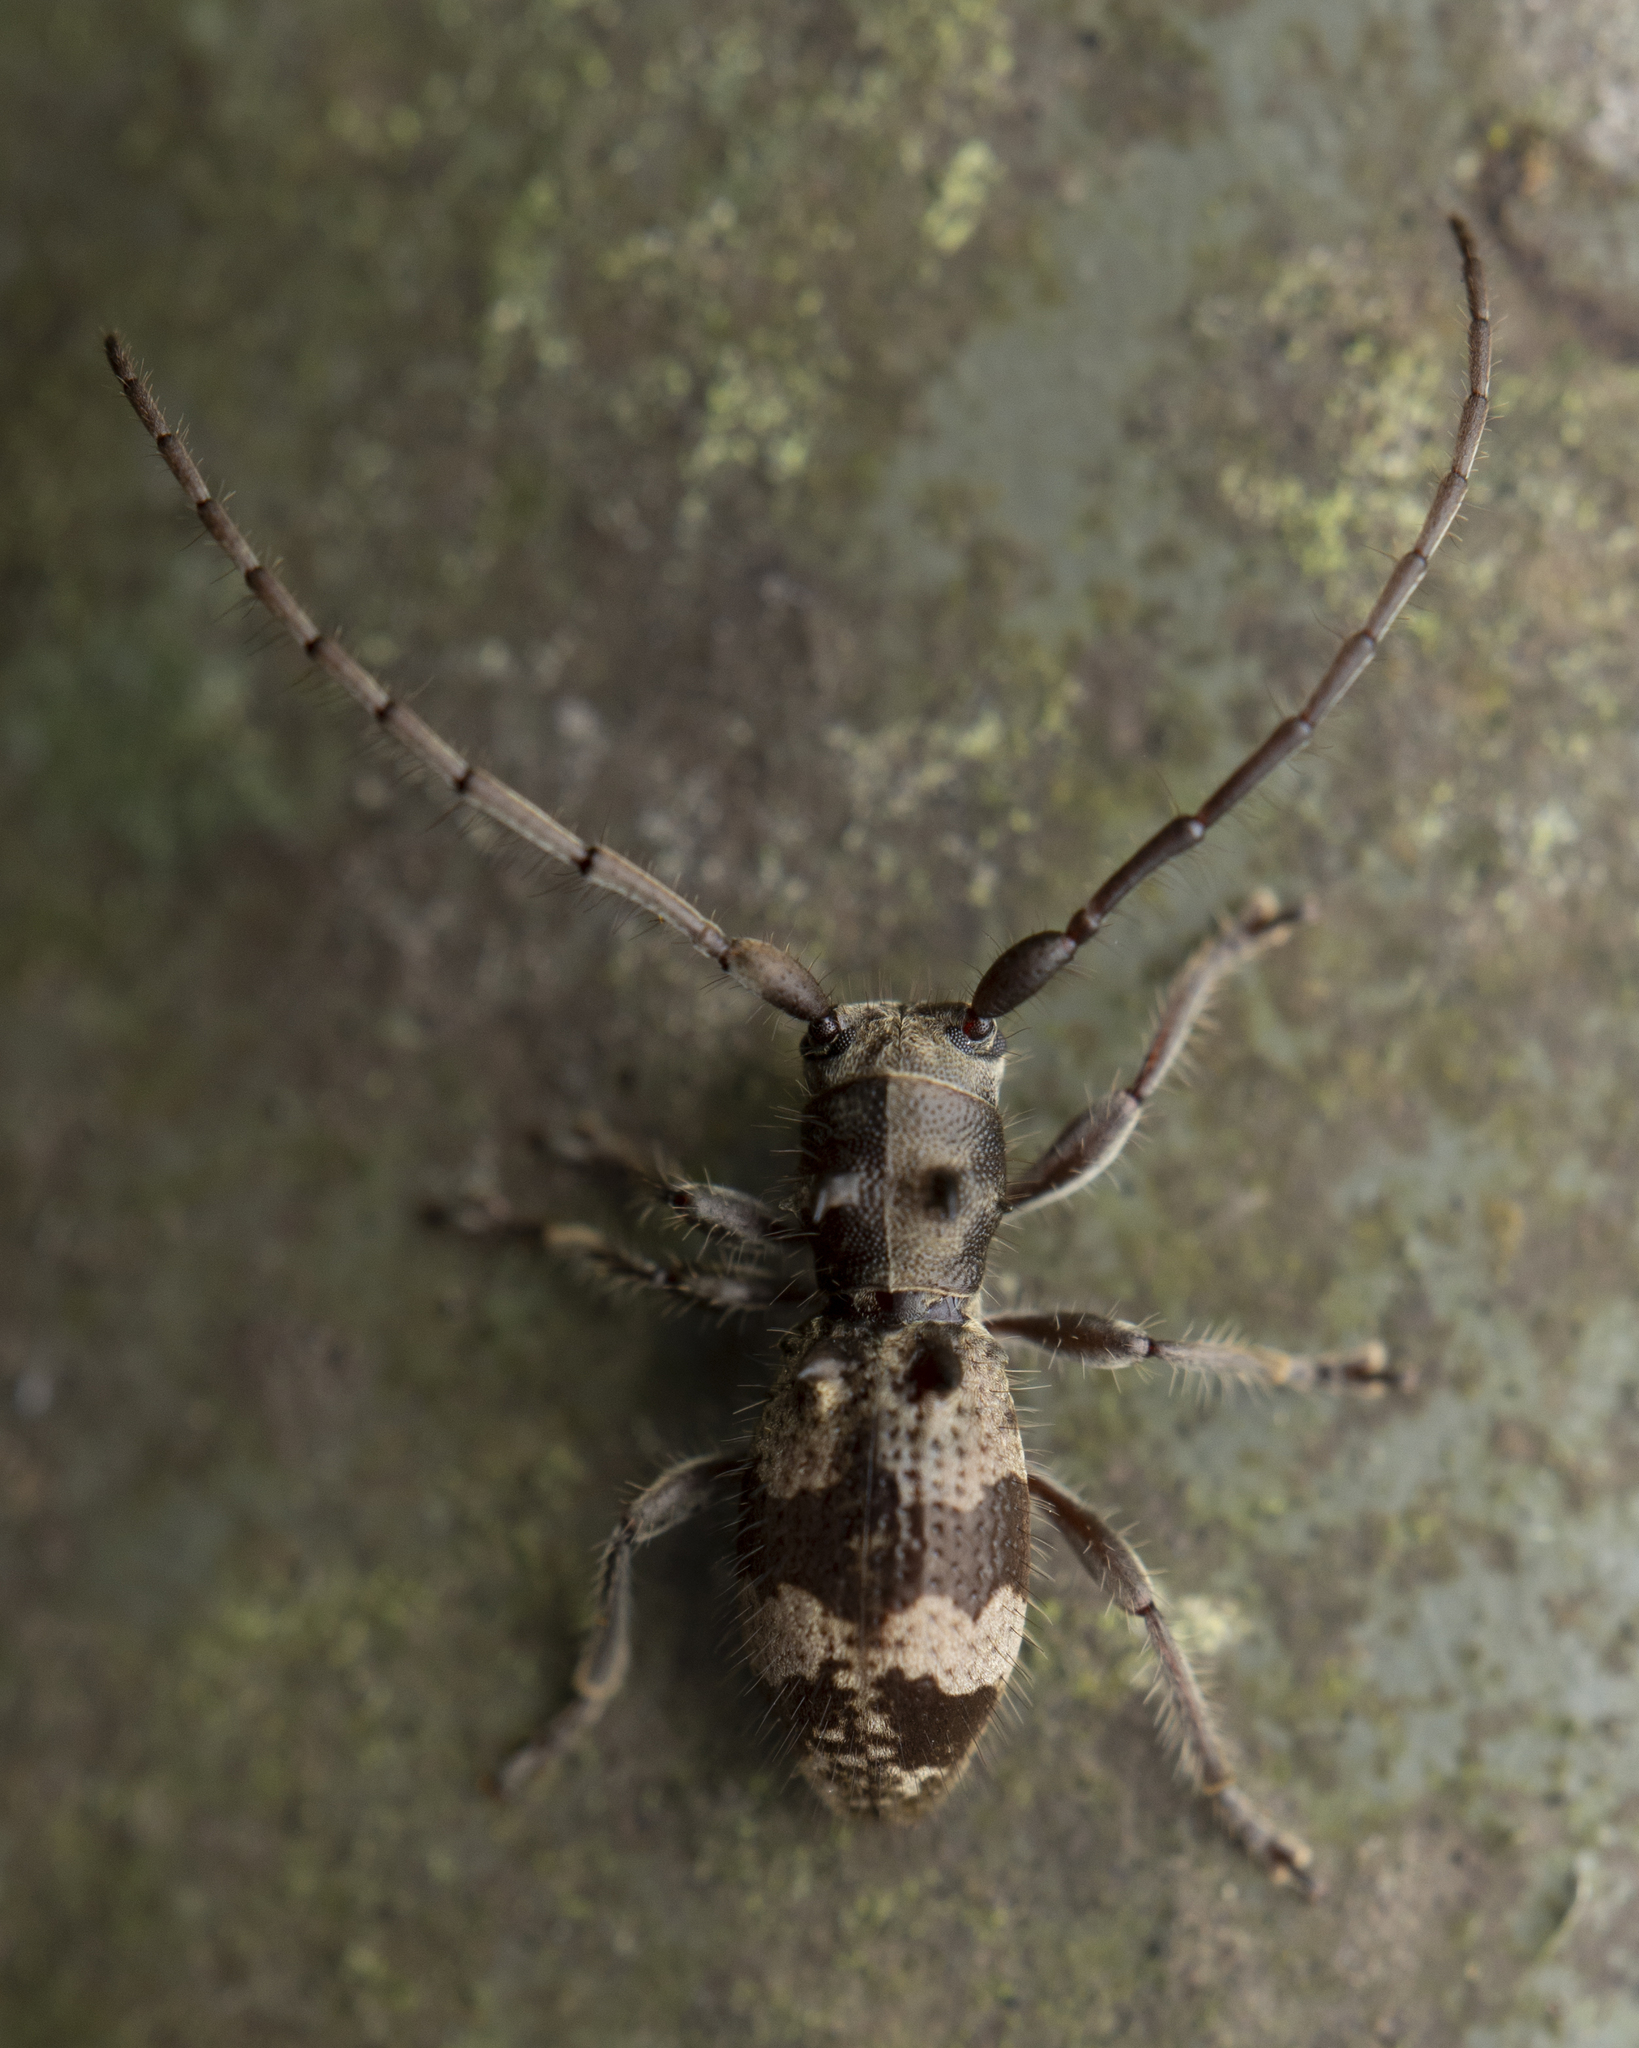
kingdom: Animalia
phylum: Arthropoda
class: Insecta
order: Coleoptera
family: Cerambycidae
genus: Yimnashana
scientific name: Yimnashana
